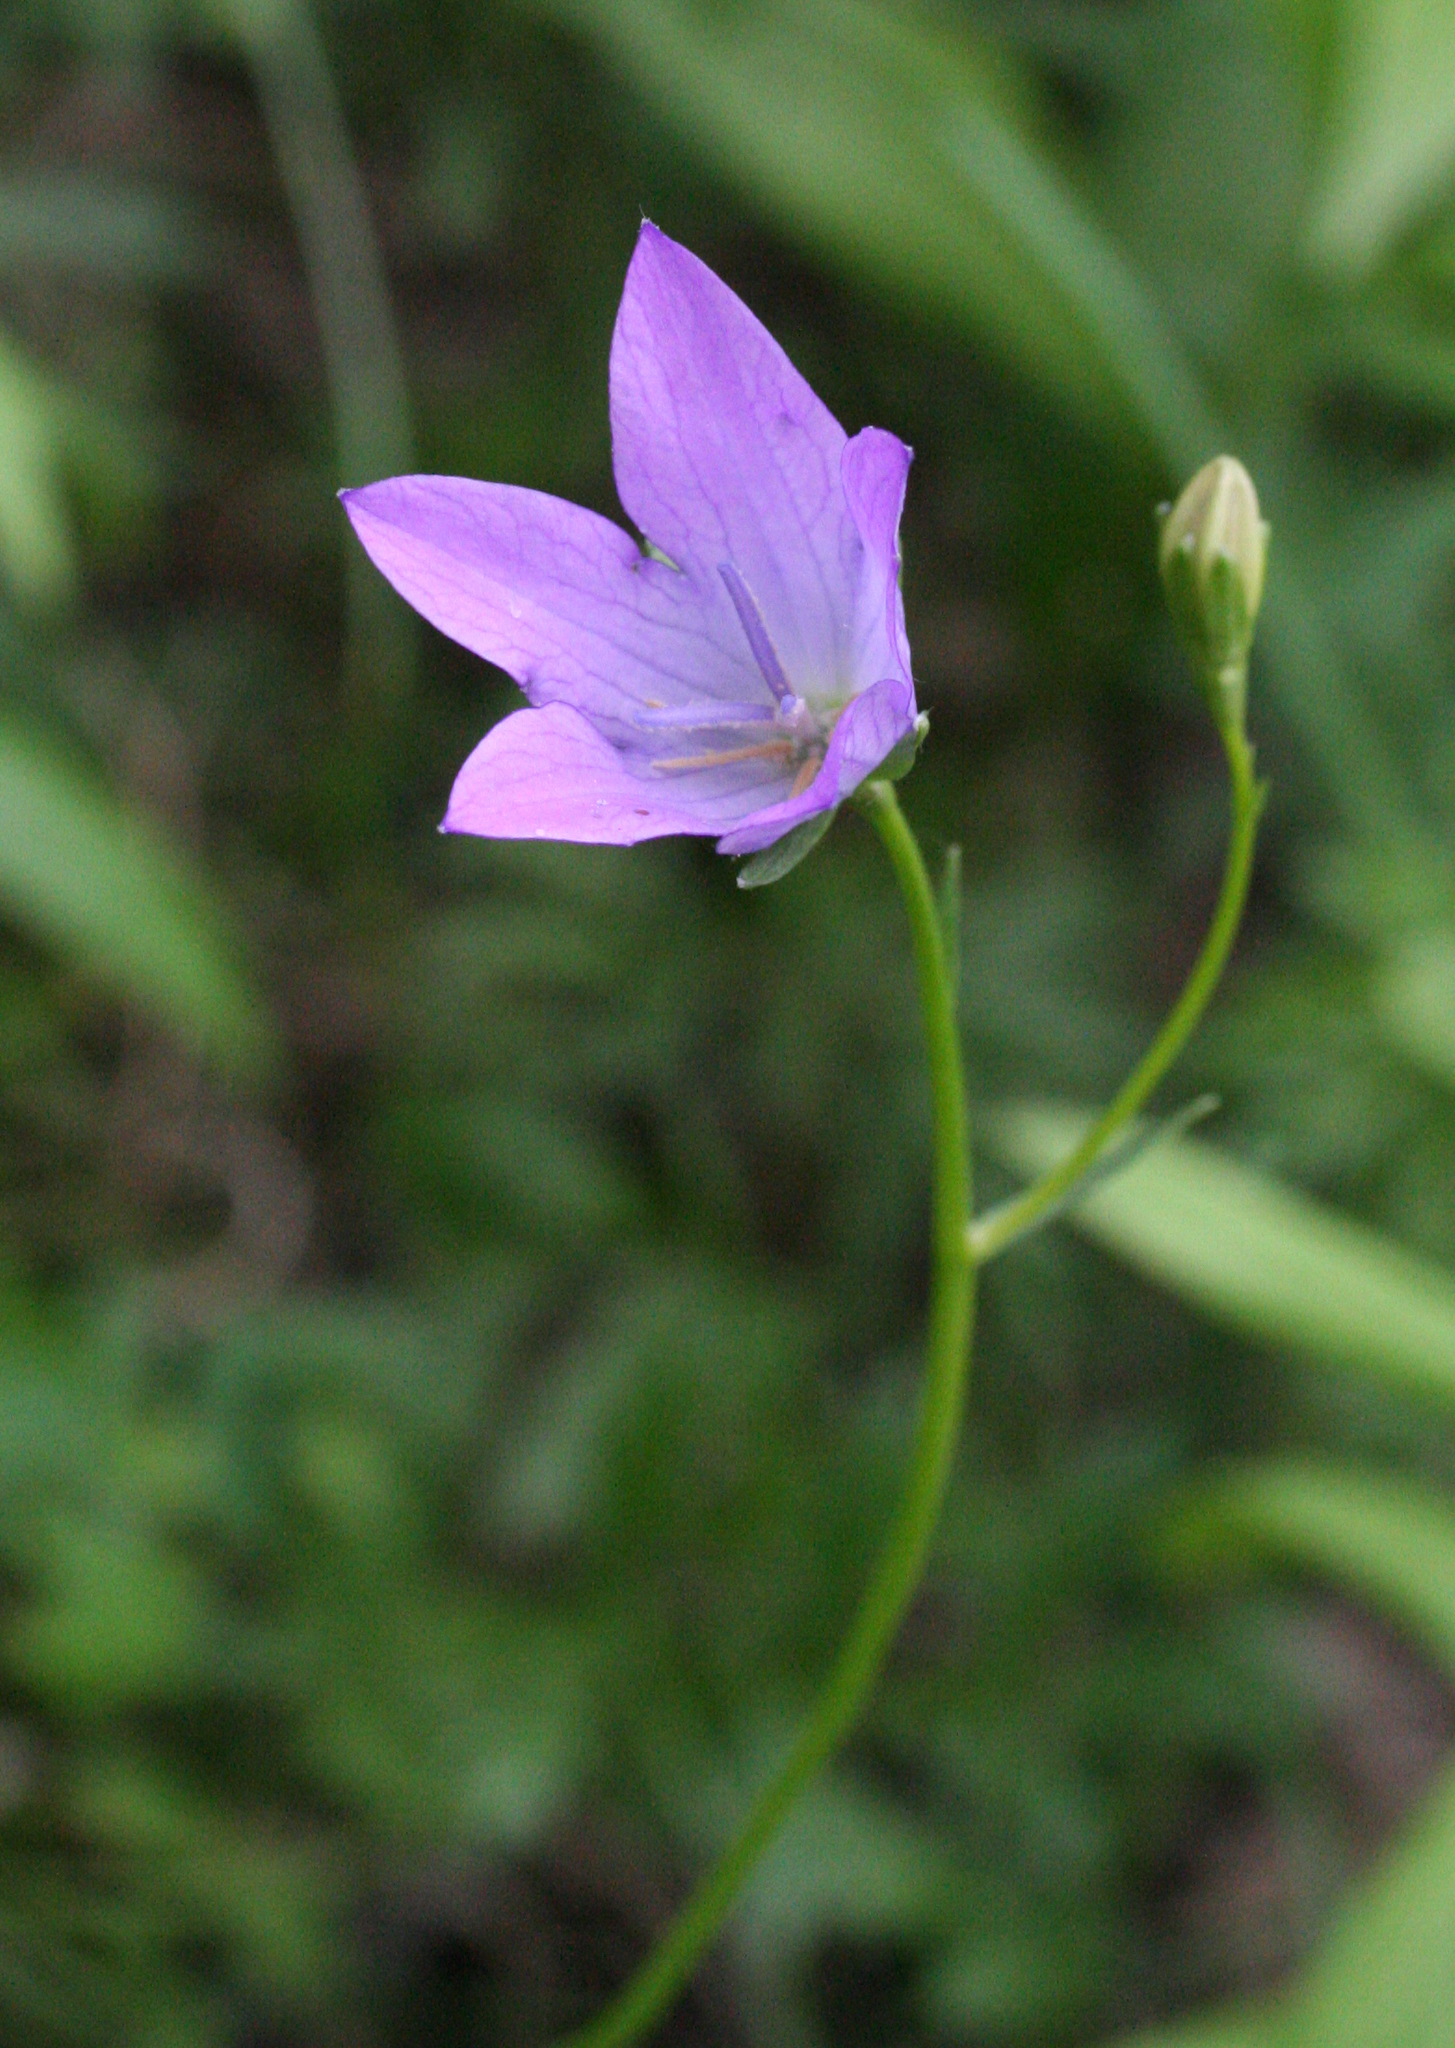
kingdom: Plantae
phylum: Tracheophyta
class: Magnoliopsida
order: Asterales
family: Campanulaceae
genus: Campanula
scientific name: Campanula stevenii
